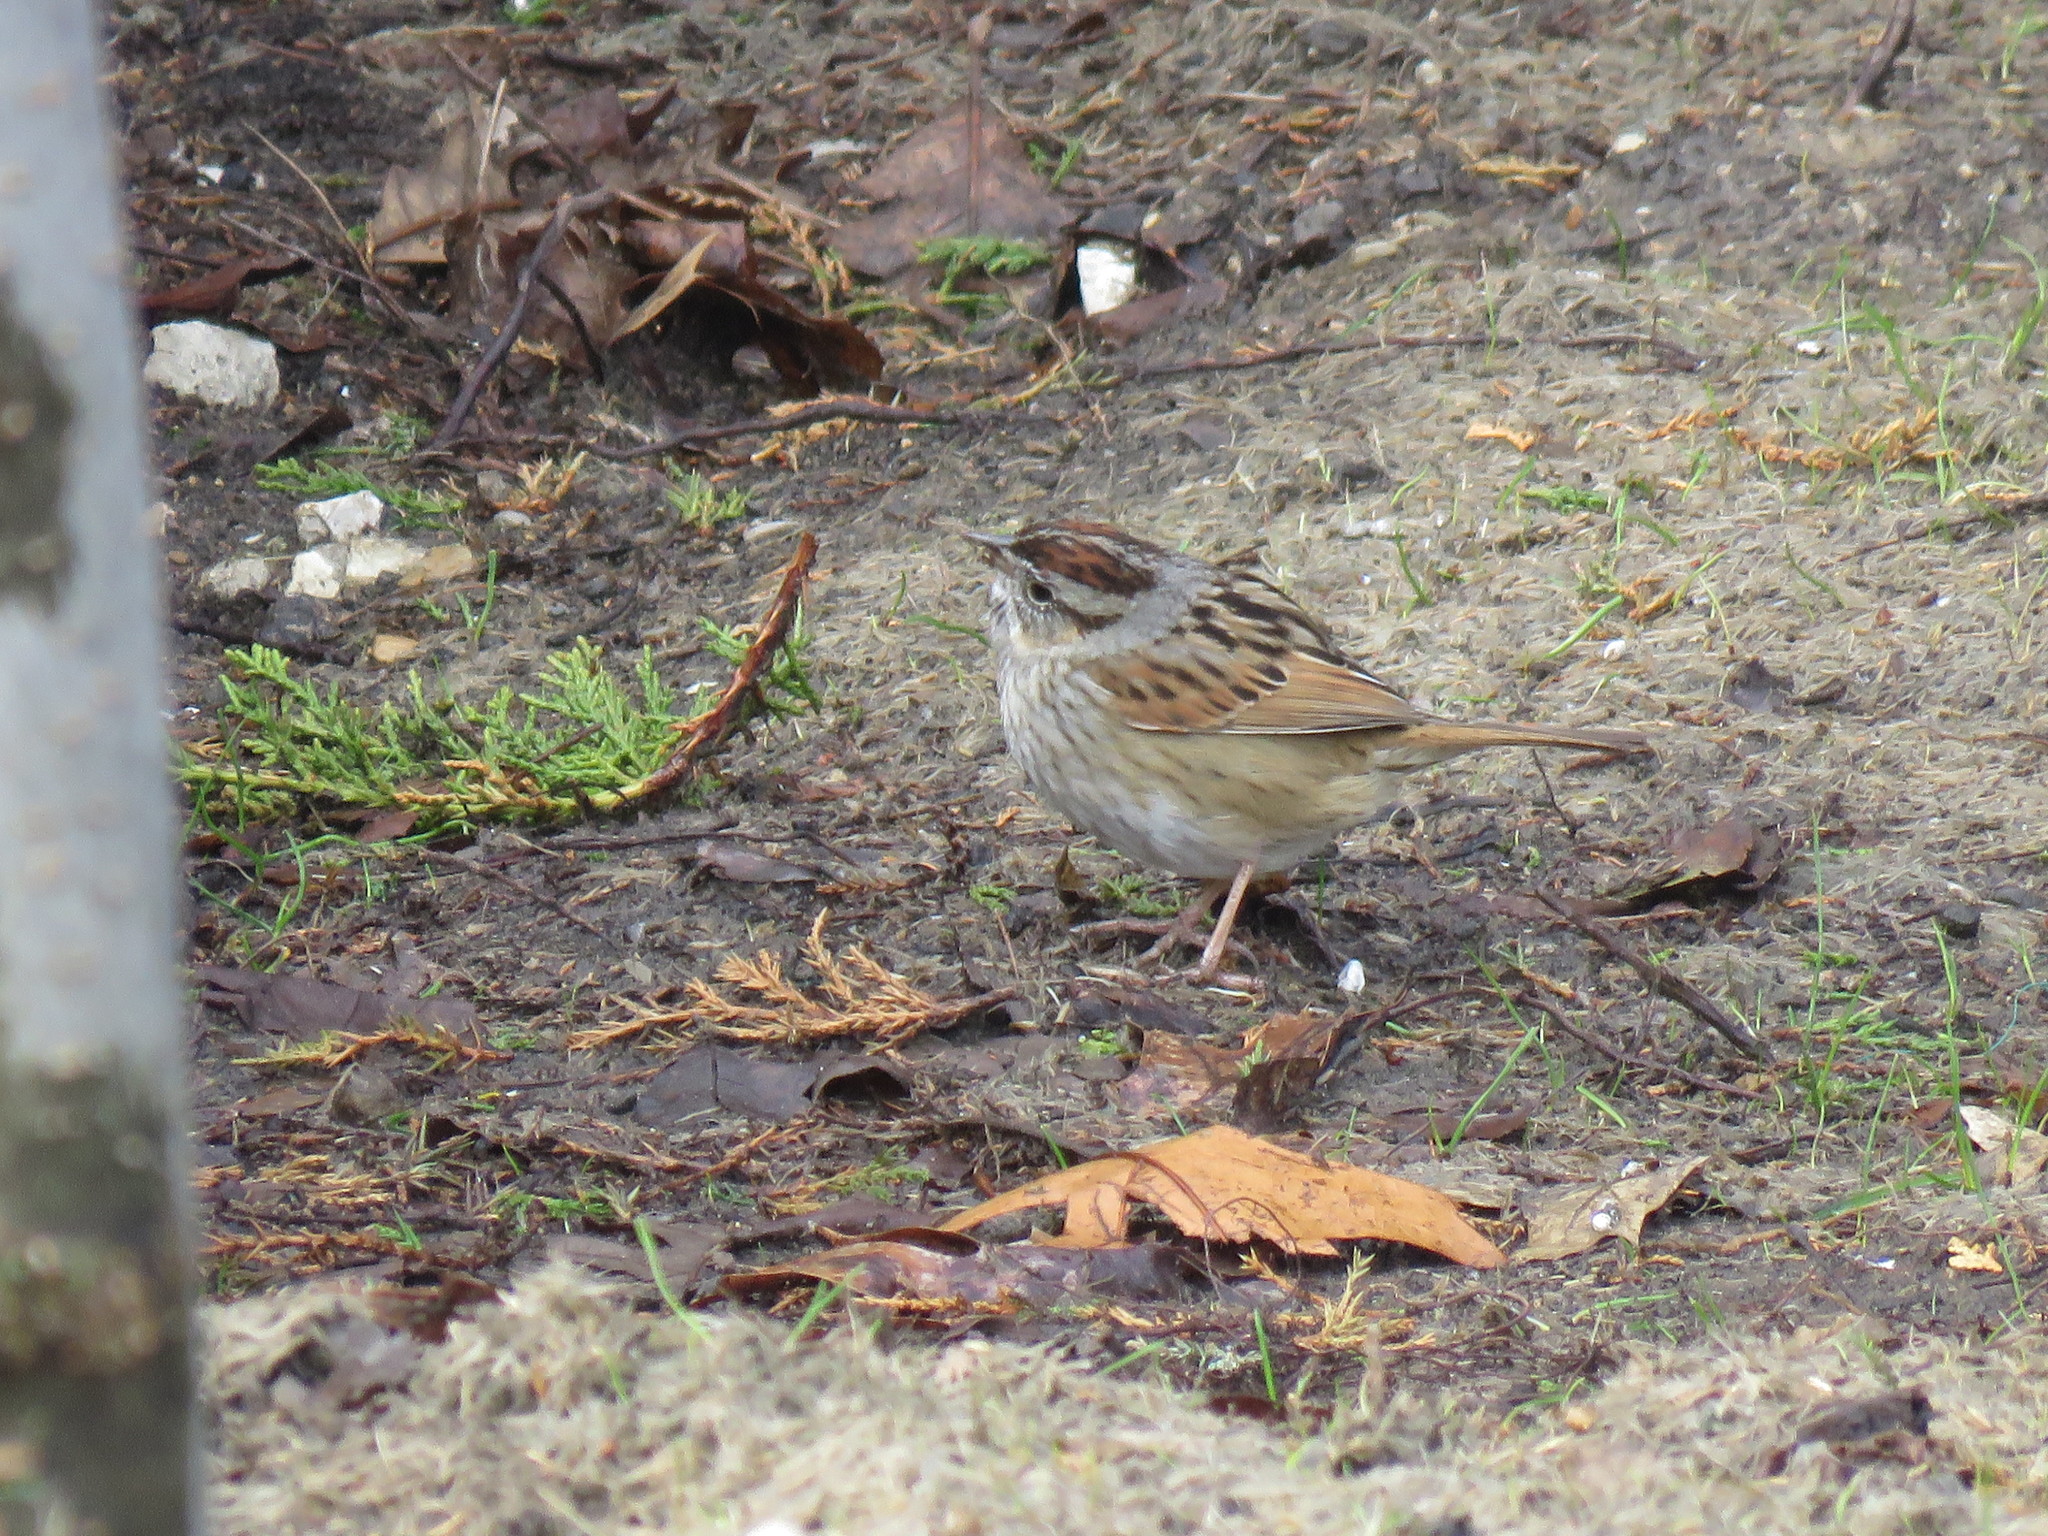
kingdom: Animalia
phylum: Chordata
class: Aves
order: Passeriformes
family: Passerellidae
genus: Melospiza
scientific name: Melospiza georgiana
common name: Swamp sparrow
